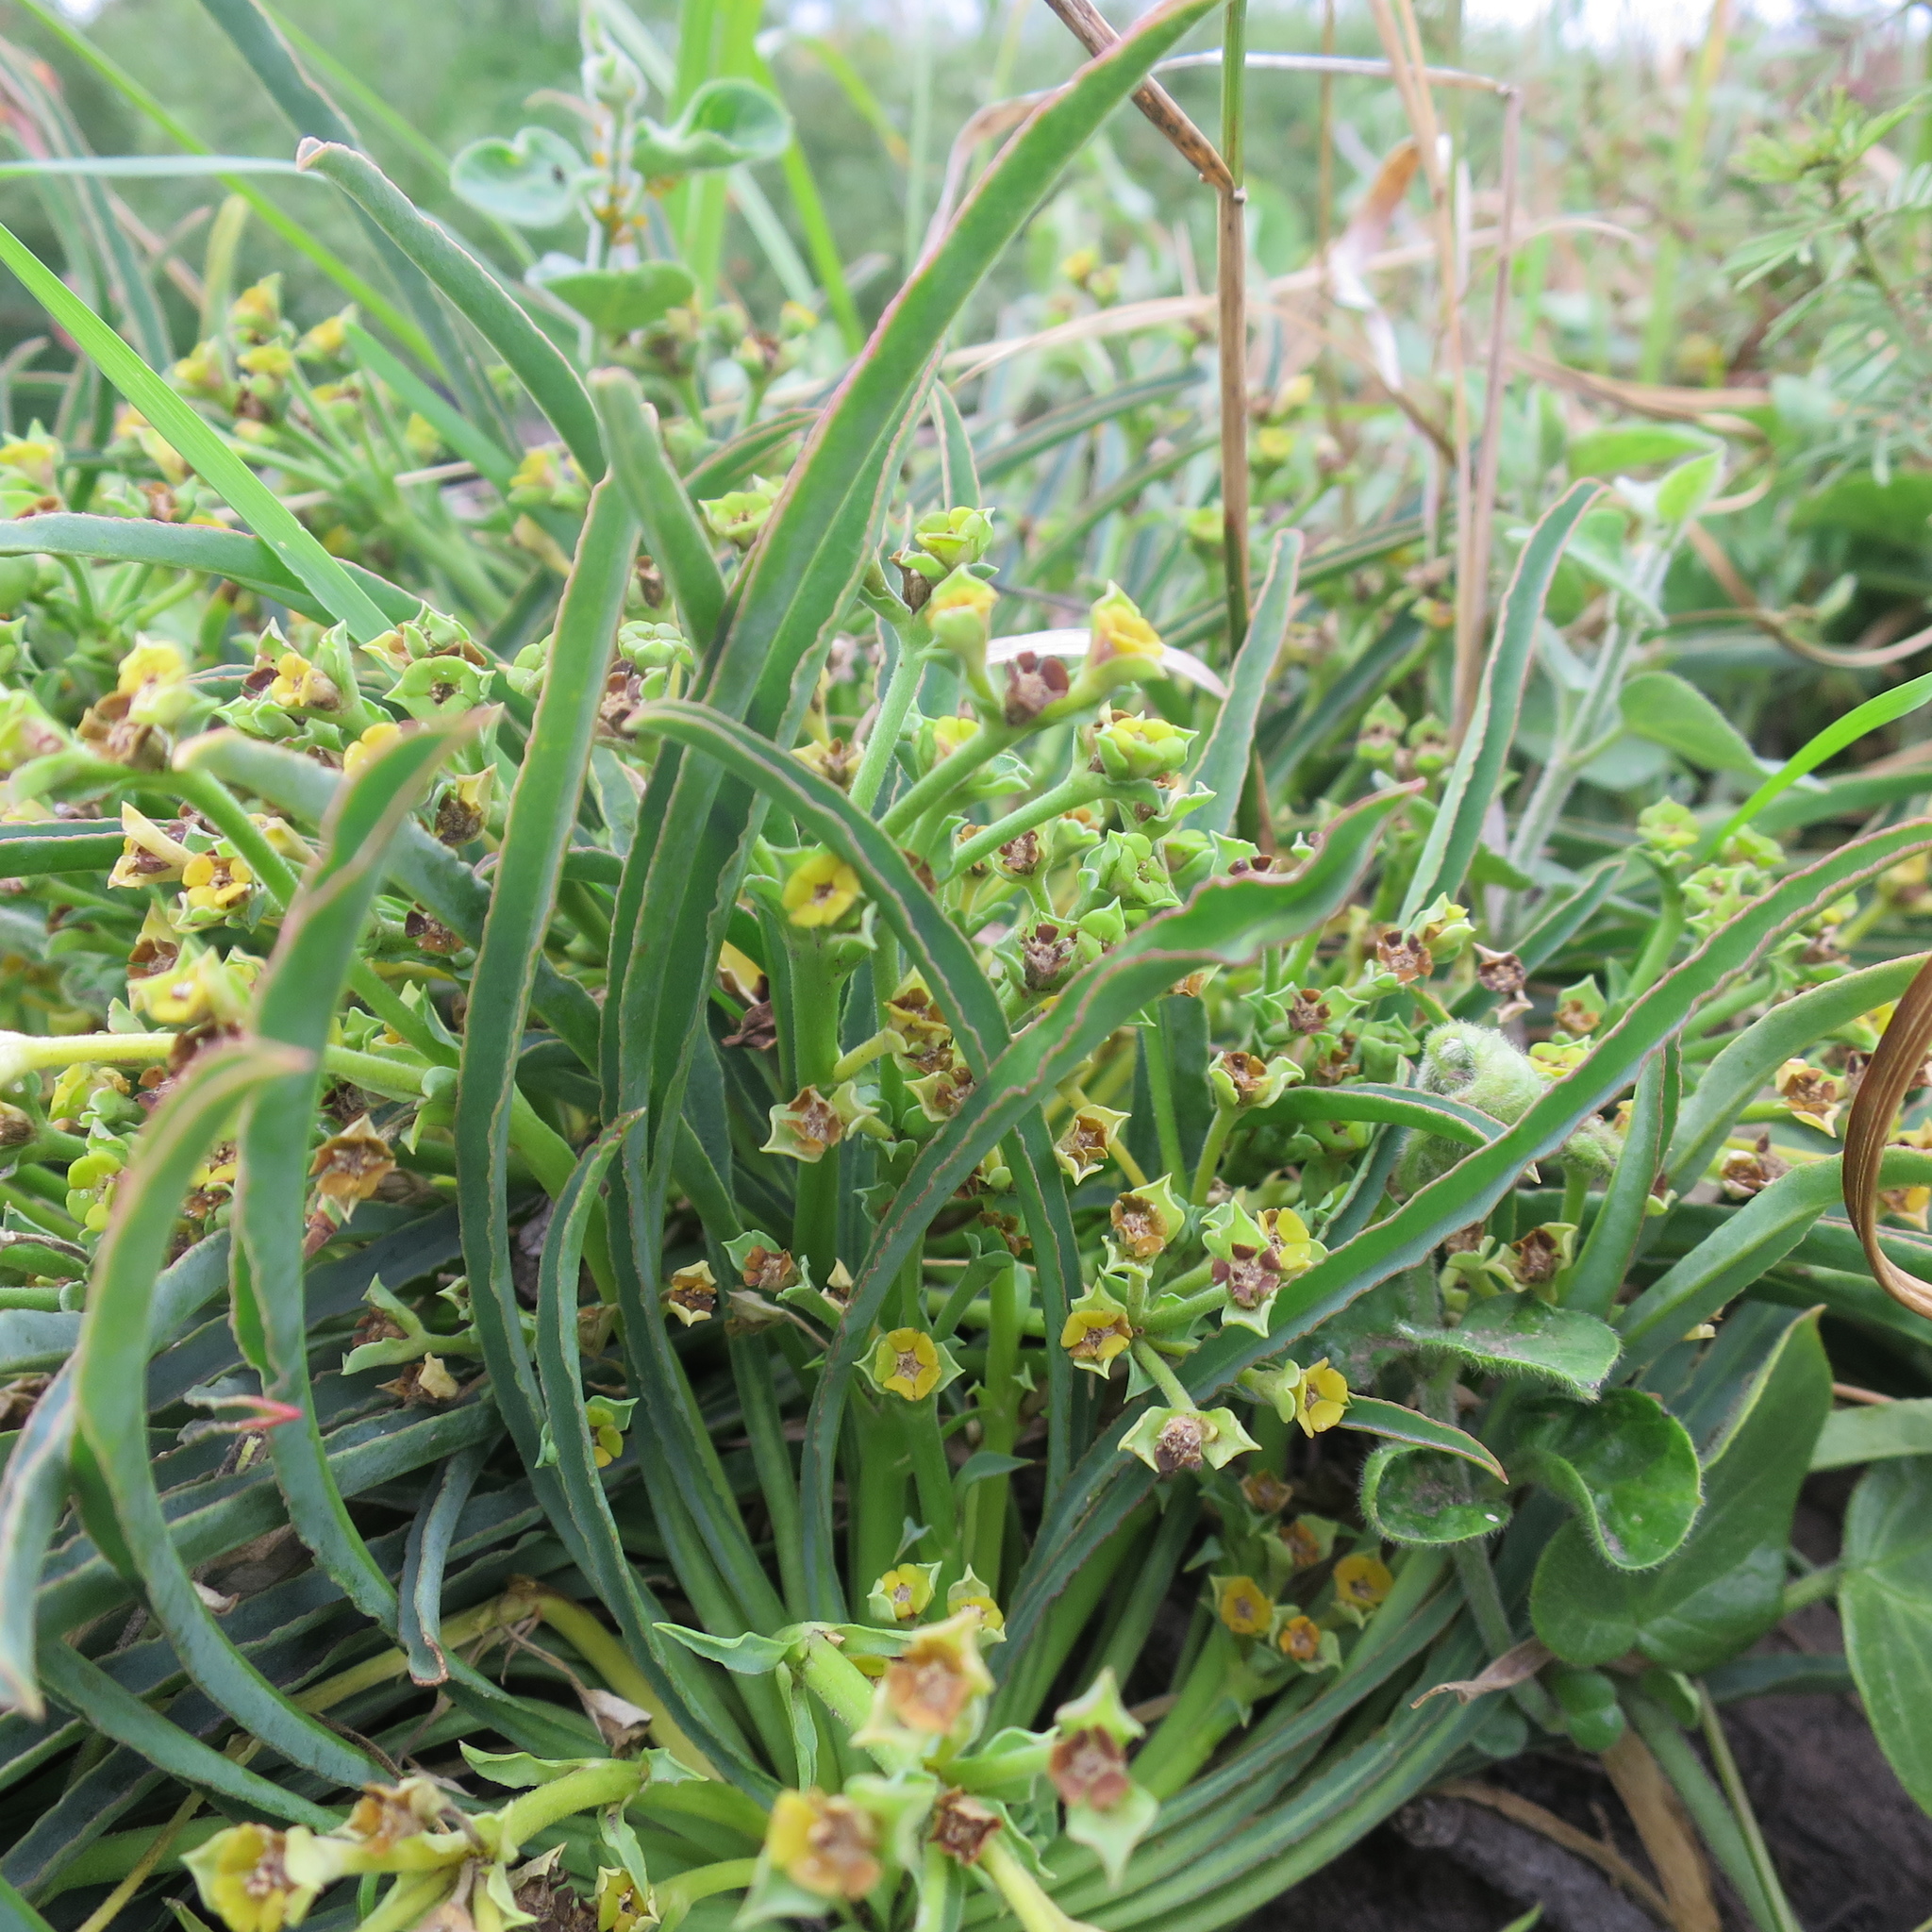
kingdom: Plantae
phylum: Tracheophyta
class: Magnoliopsida
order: Malpighiales
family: Euphorbiaceae
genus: Euphorbia
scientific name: Euphorbia silenifolia
